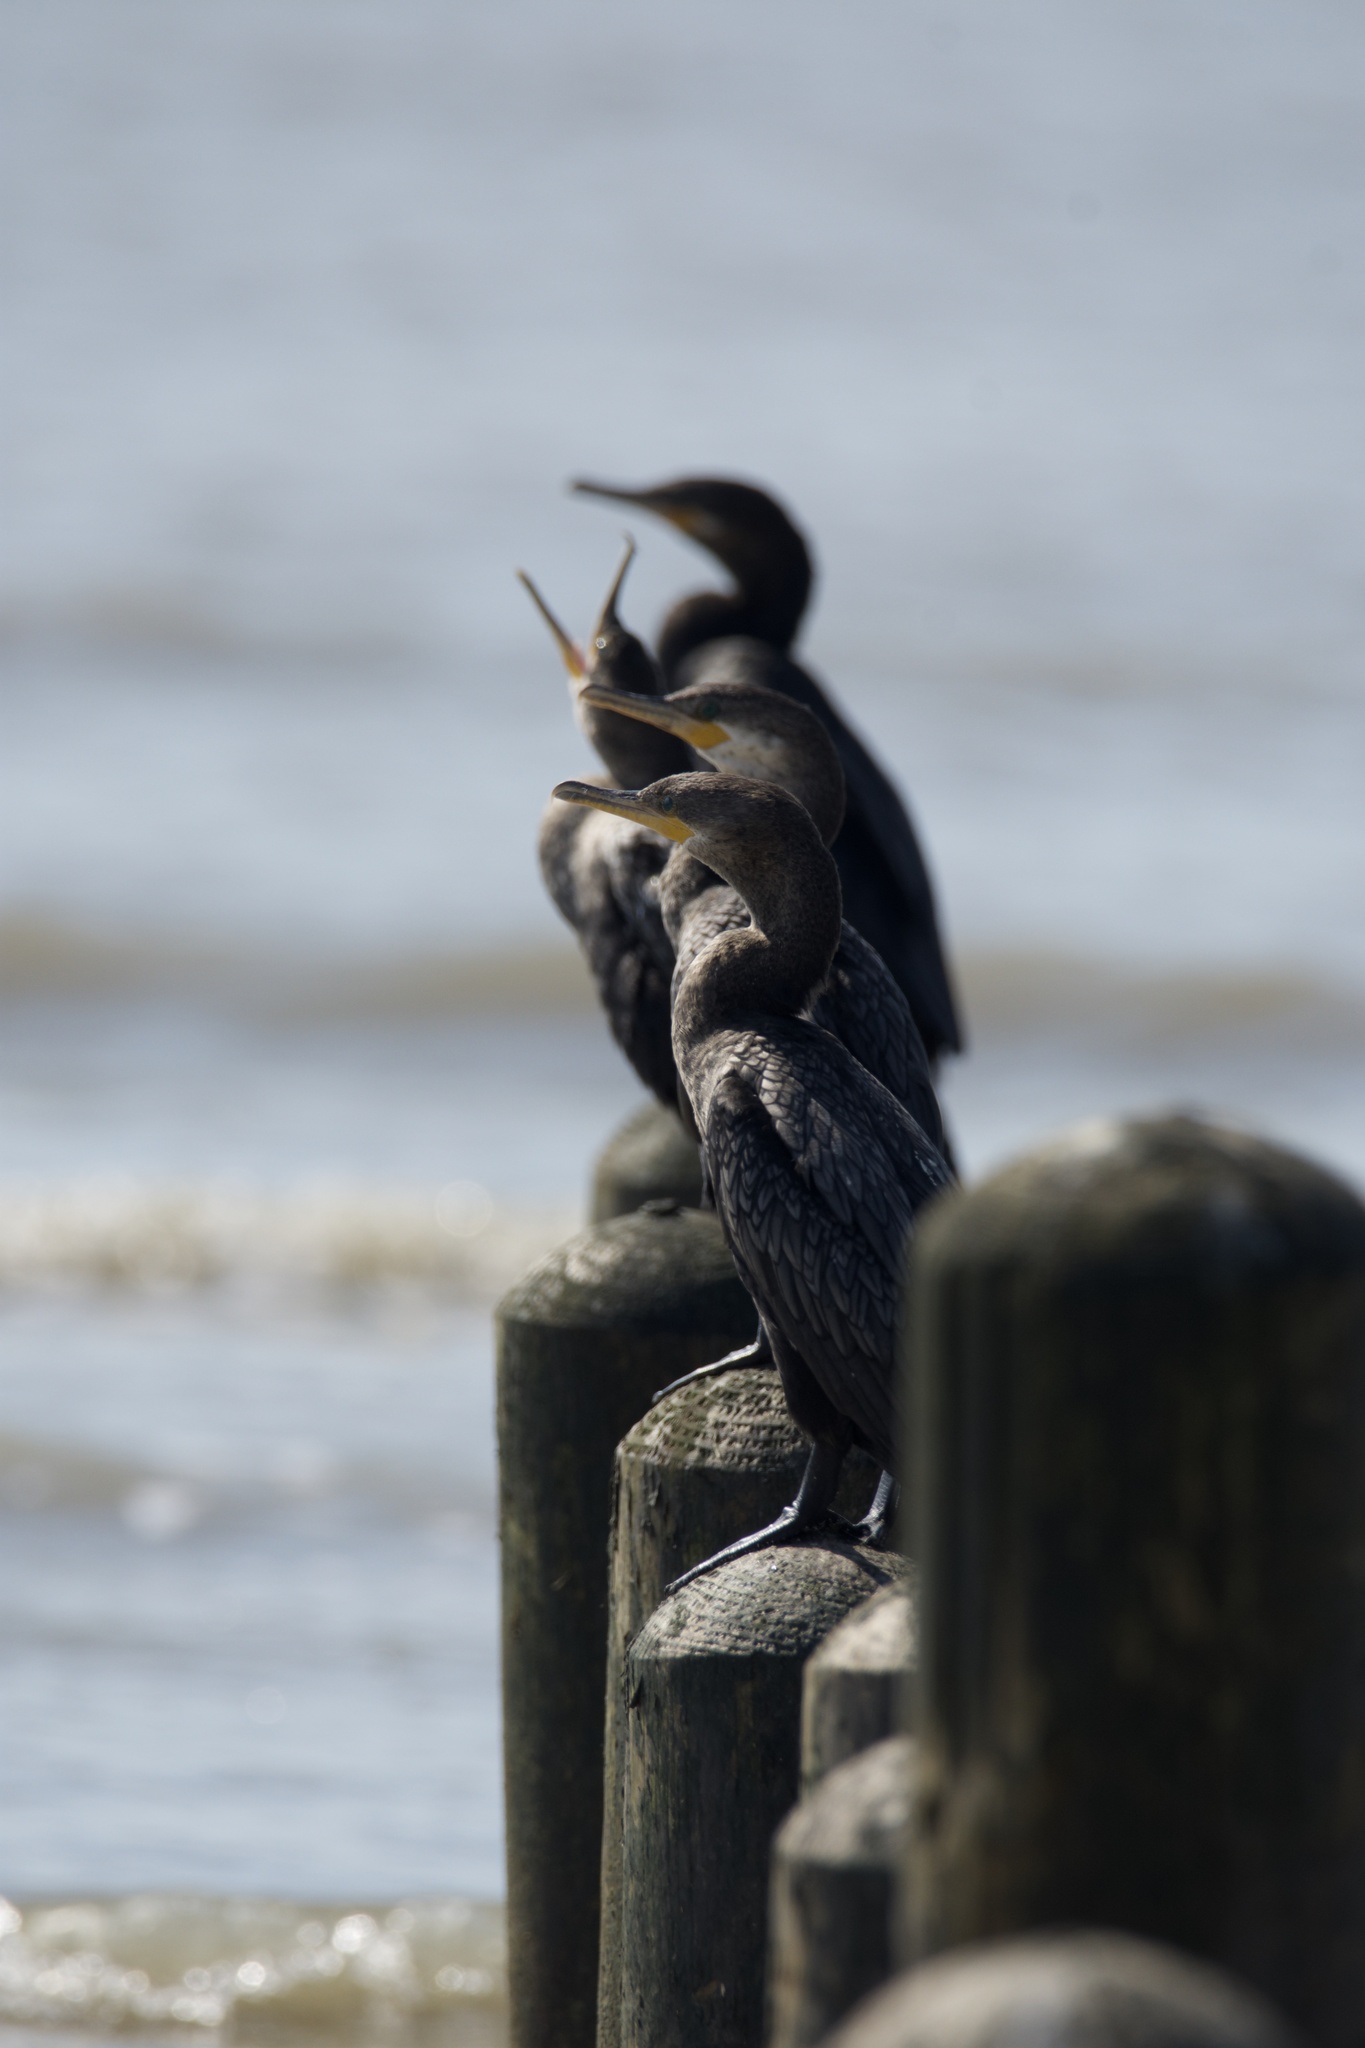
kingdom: Animalia
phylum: Chordata
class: Aves
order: Suliformes
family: Phalacrocoracidae
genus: Phalacrocorax
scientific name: Phalacrocorax brasilianus
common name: Neotropic cormorant
